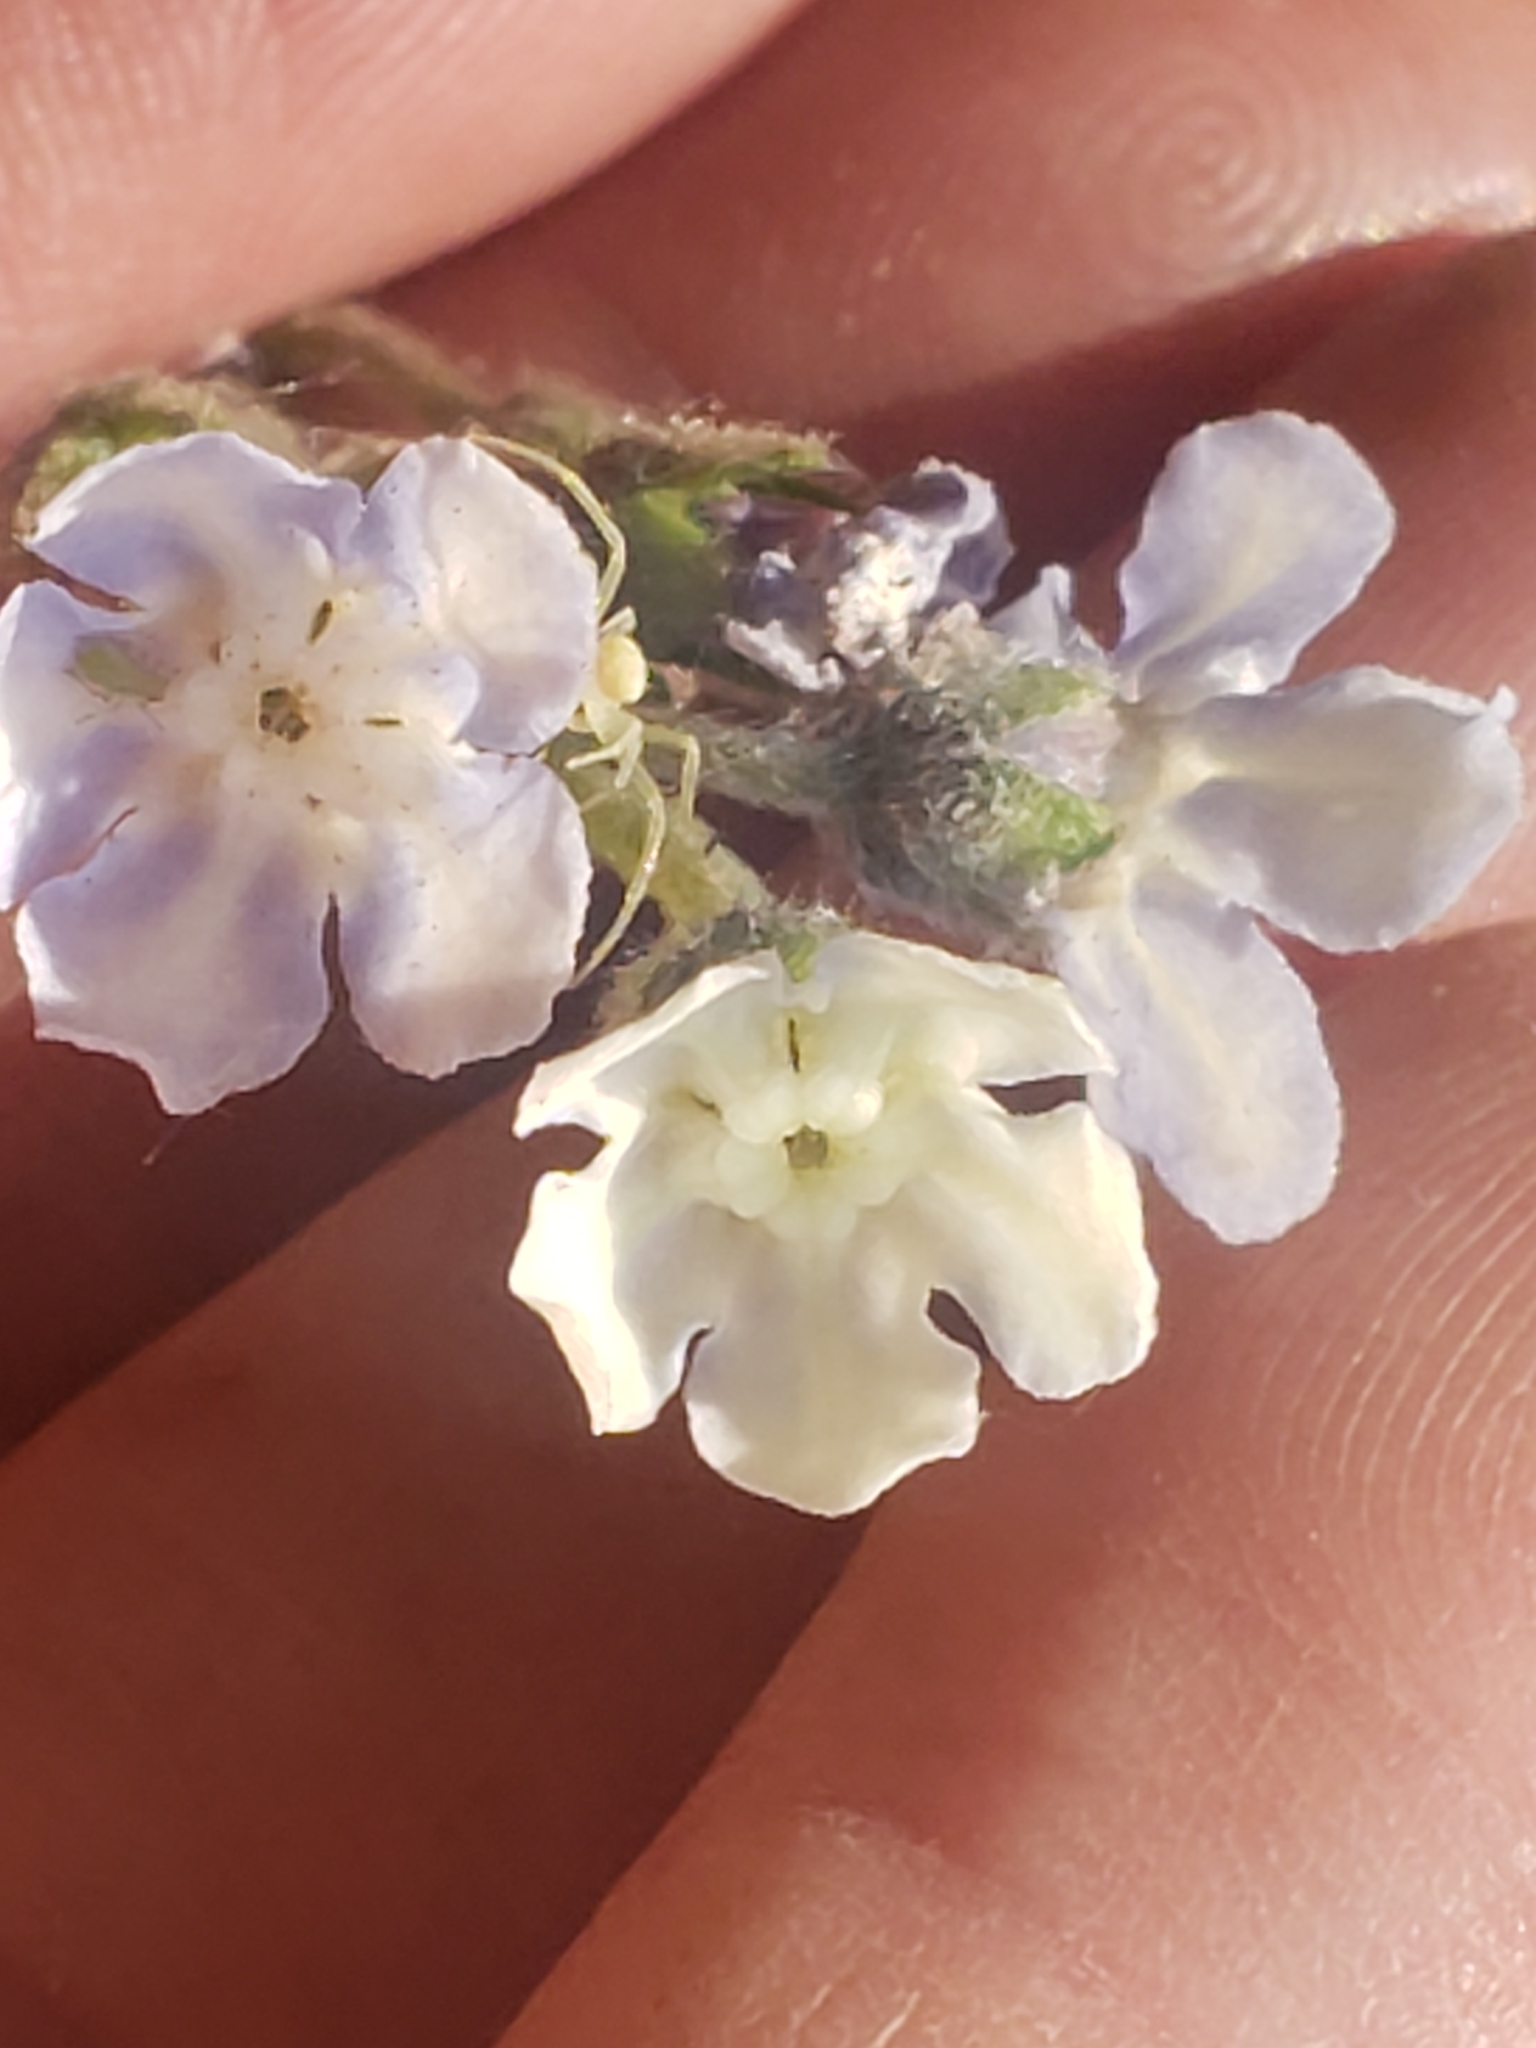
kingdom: Plantae
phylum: Tracheophyta
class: Magnoliopsida
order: Boraginales
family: Boraginaceae
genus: Andersonglossum
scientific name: Andersonglossum virginianum
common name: Wild comfrey
